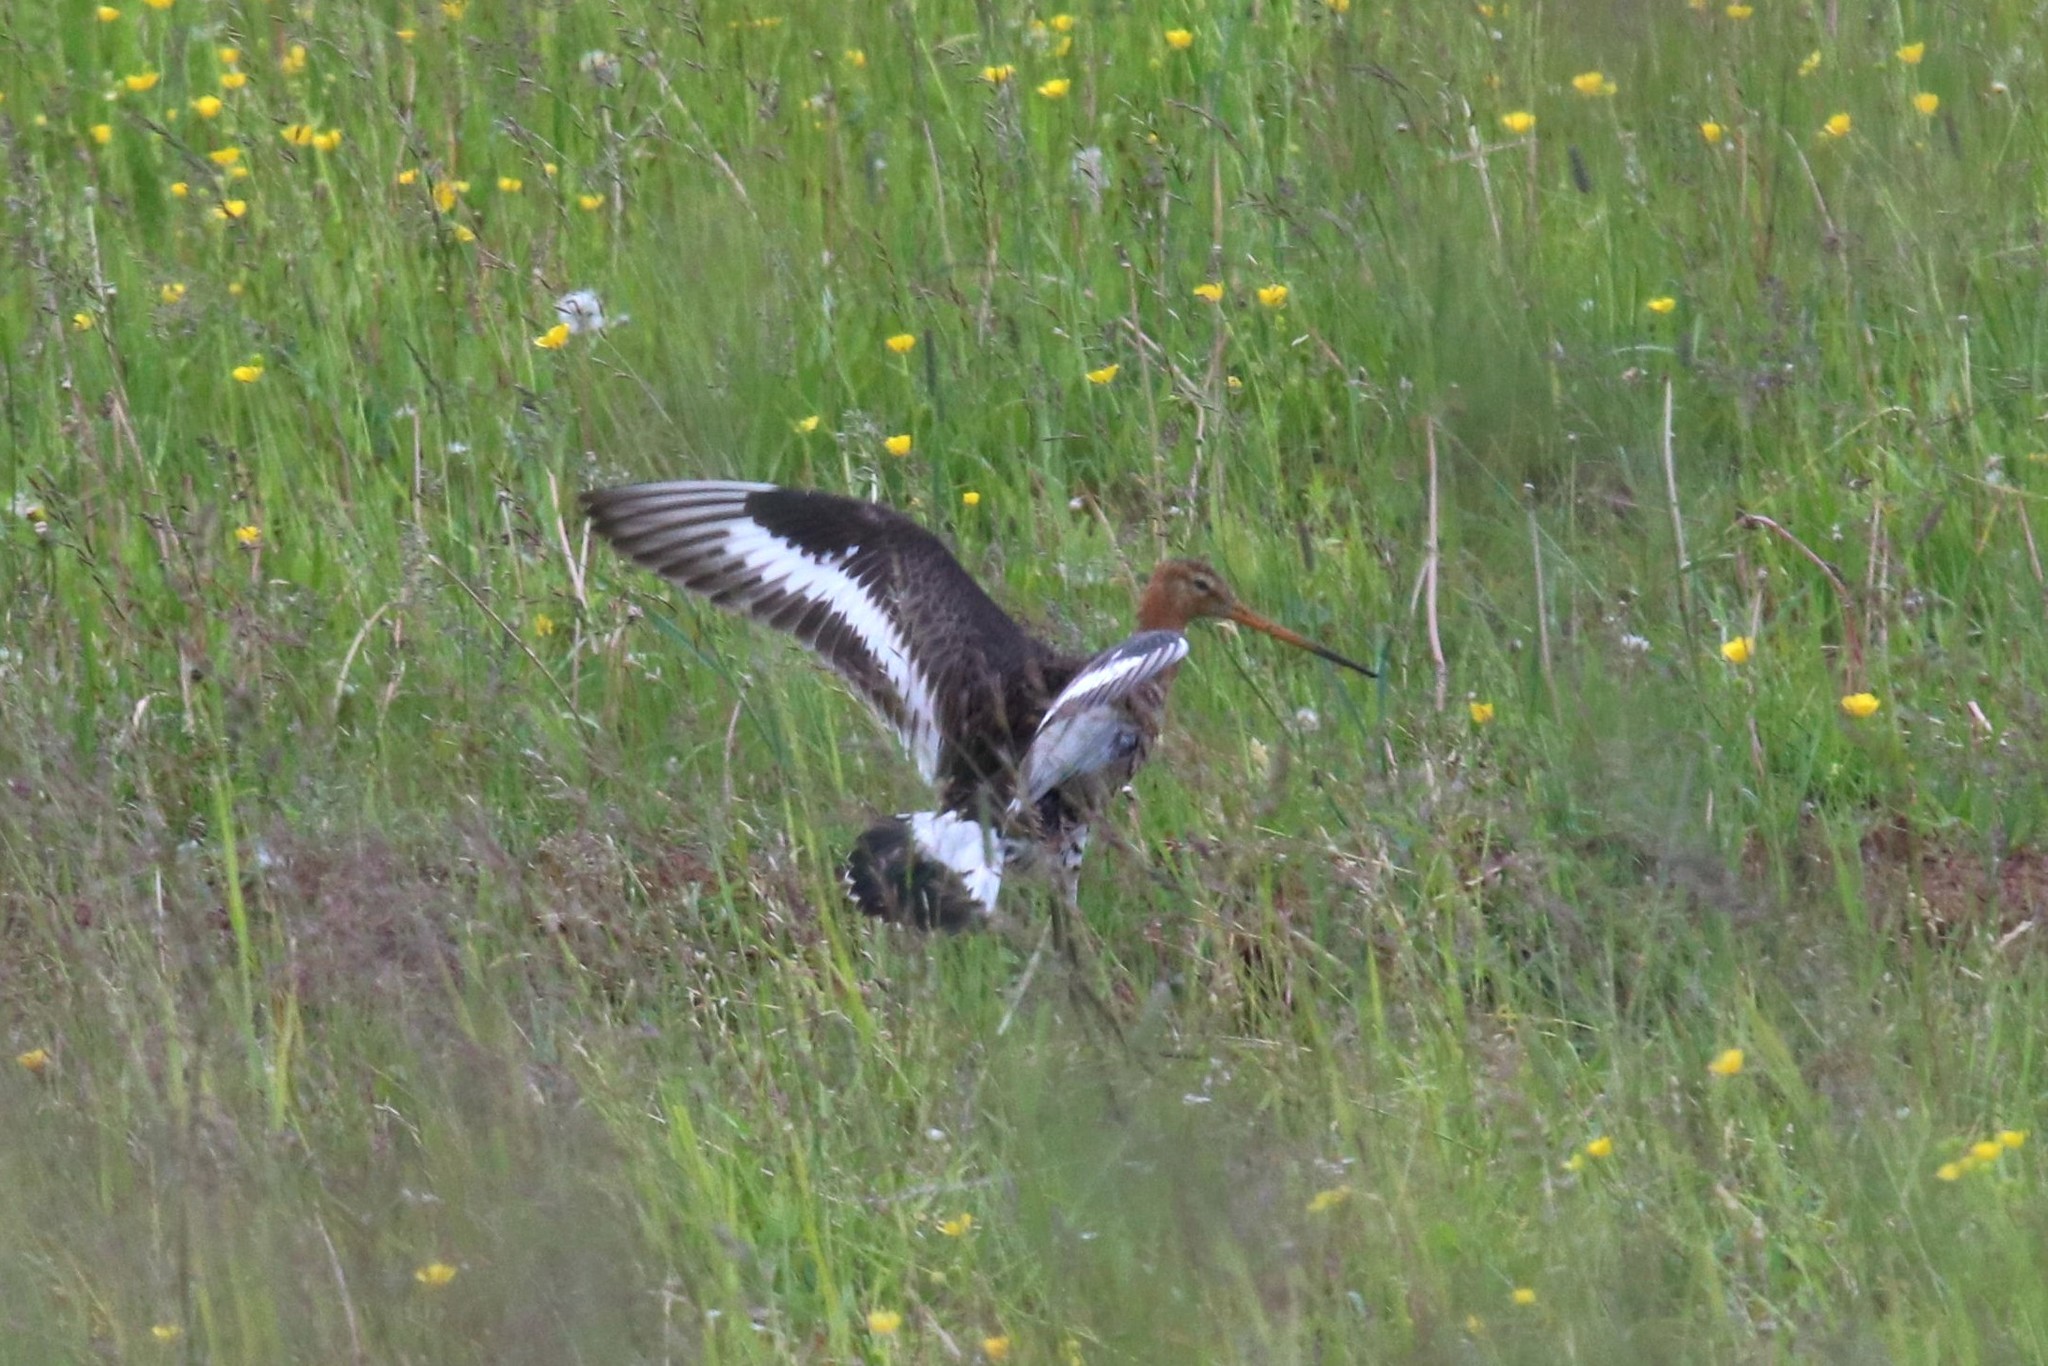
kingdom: Animalia
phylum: Chordata
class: Aves
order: Charadriiformes
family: Scolopacidae
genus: Limosa
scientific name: Limosa limosa
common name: Black-tailed godwit
